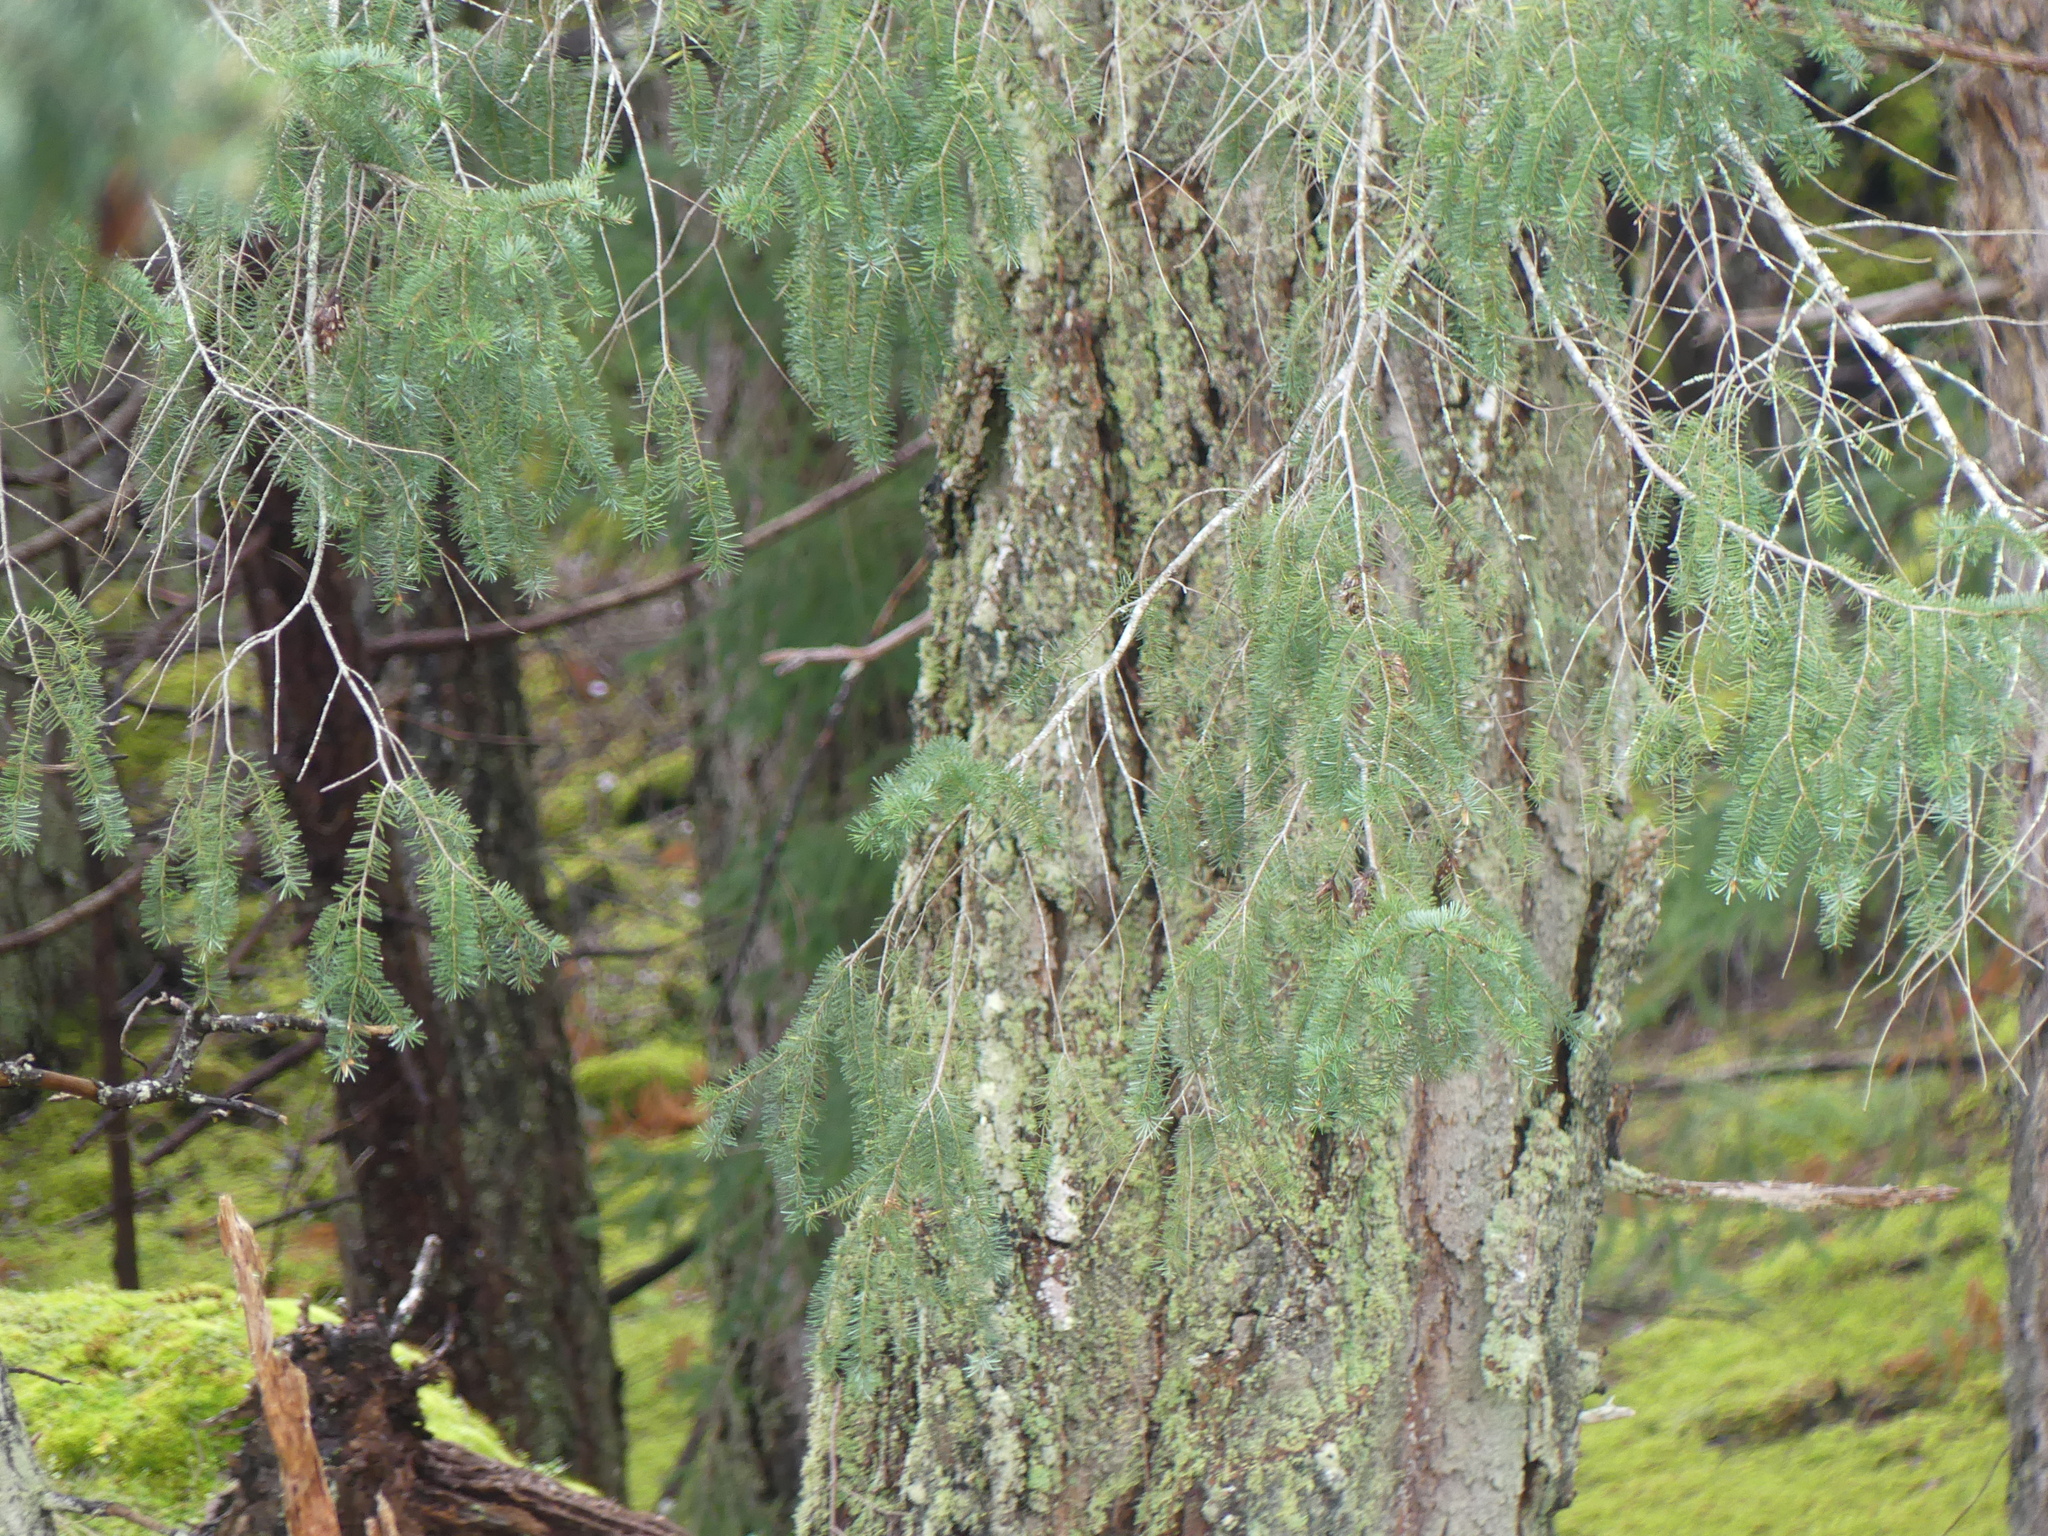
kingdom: Plantae
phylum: Tracheophyta
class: Pinopsida
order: Pinales
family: Pinaceae
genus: Pseudotsuga
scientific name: Pseudotsuga menziesii
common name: Douglas fir
